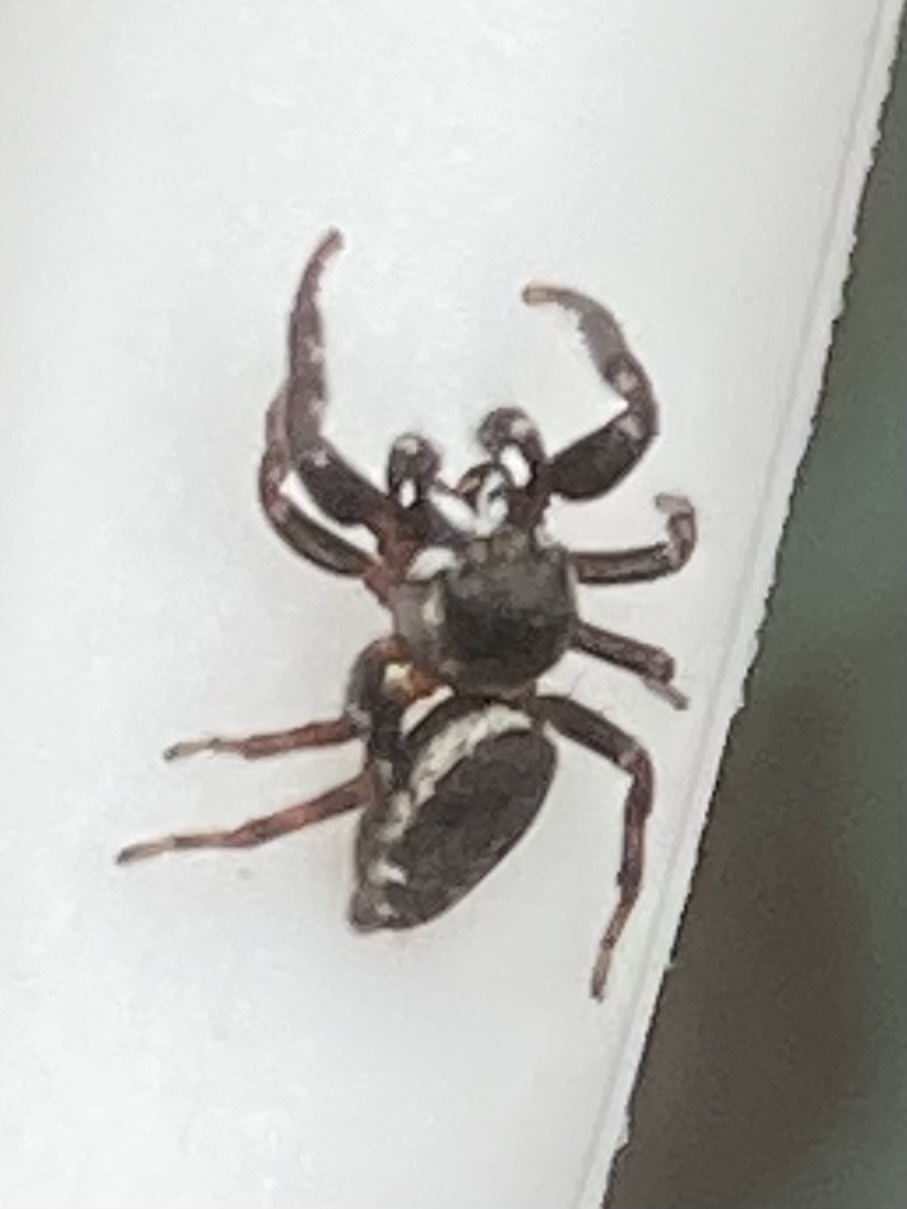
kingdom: Animalia
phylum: Arthropoda
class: Arachnida
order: Araneae
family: Salticidae
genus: Metaphidippus
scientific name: Metaphidippus manni
